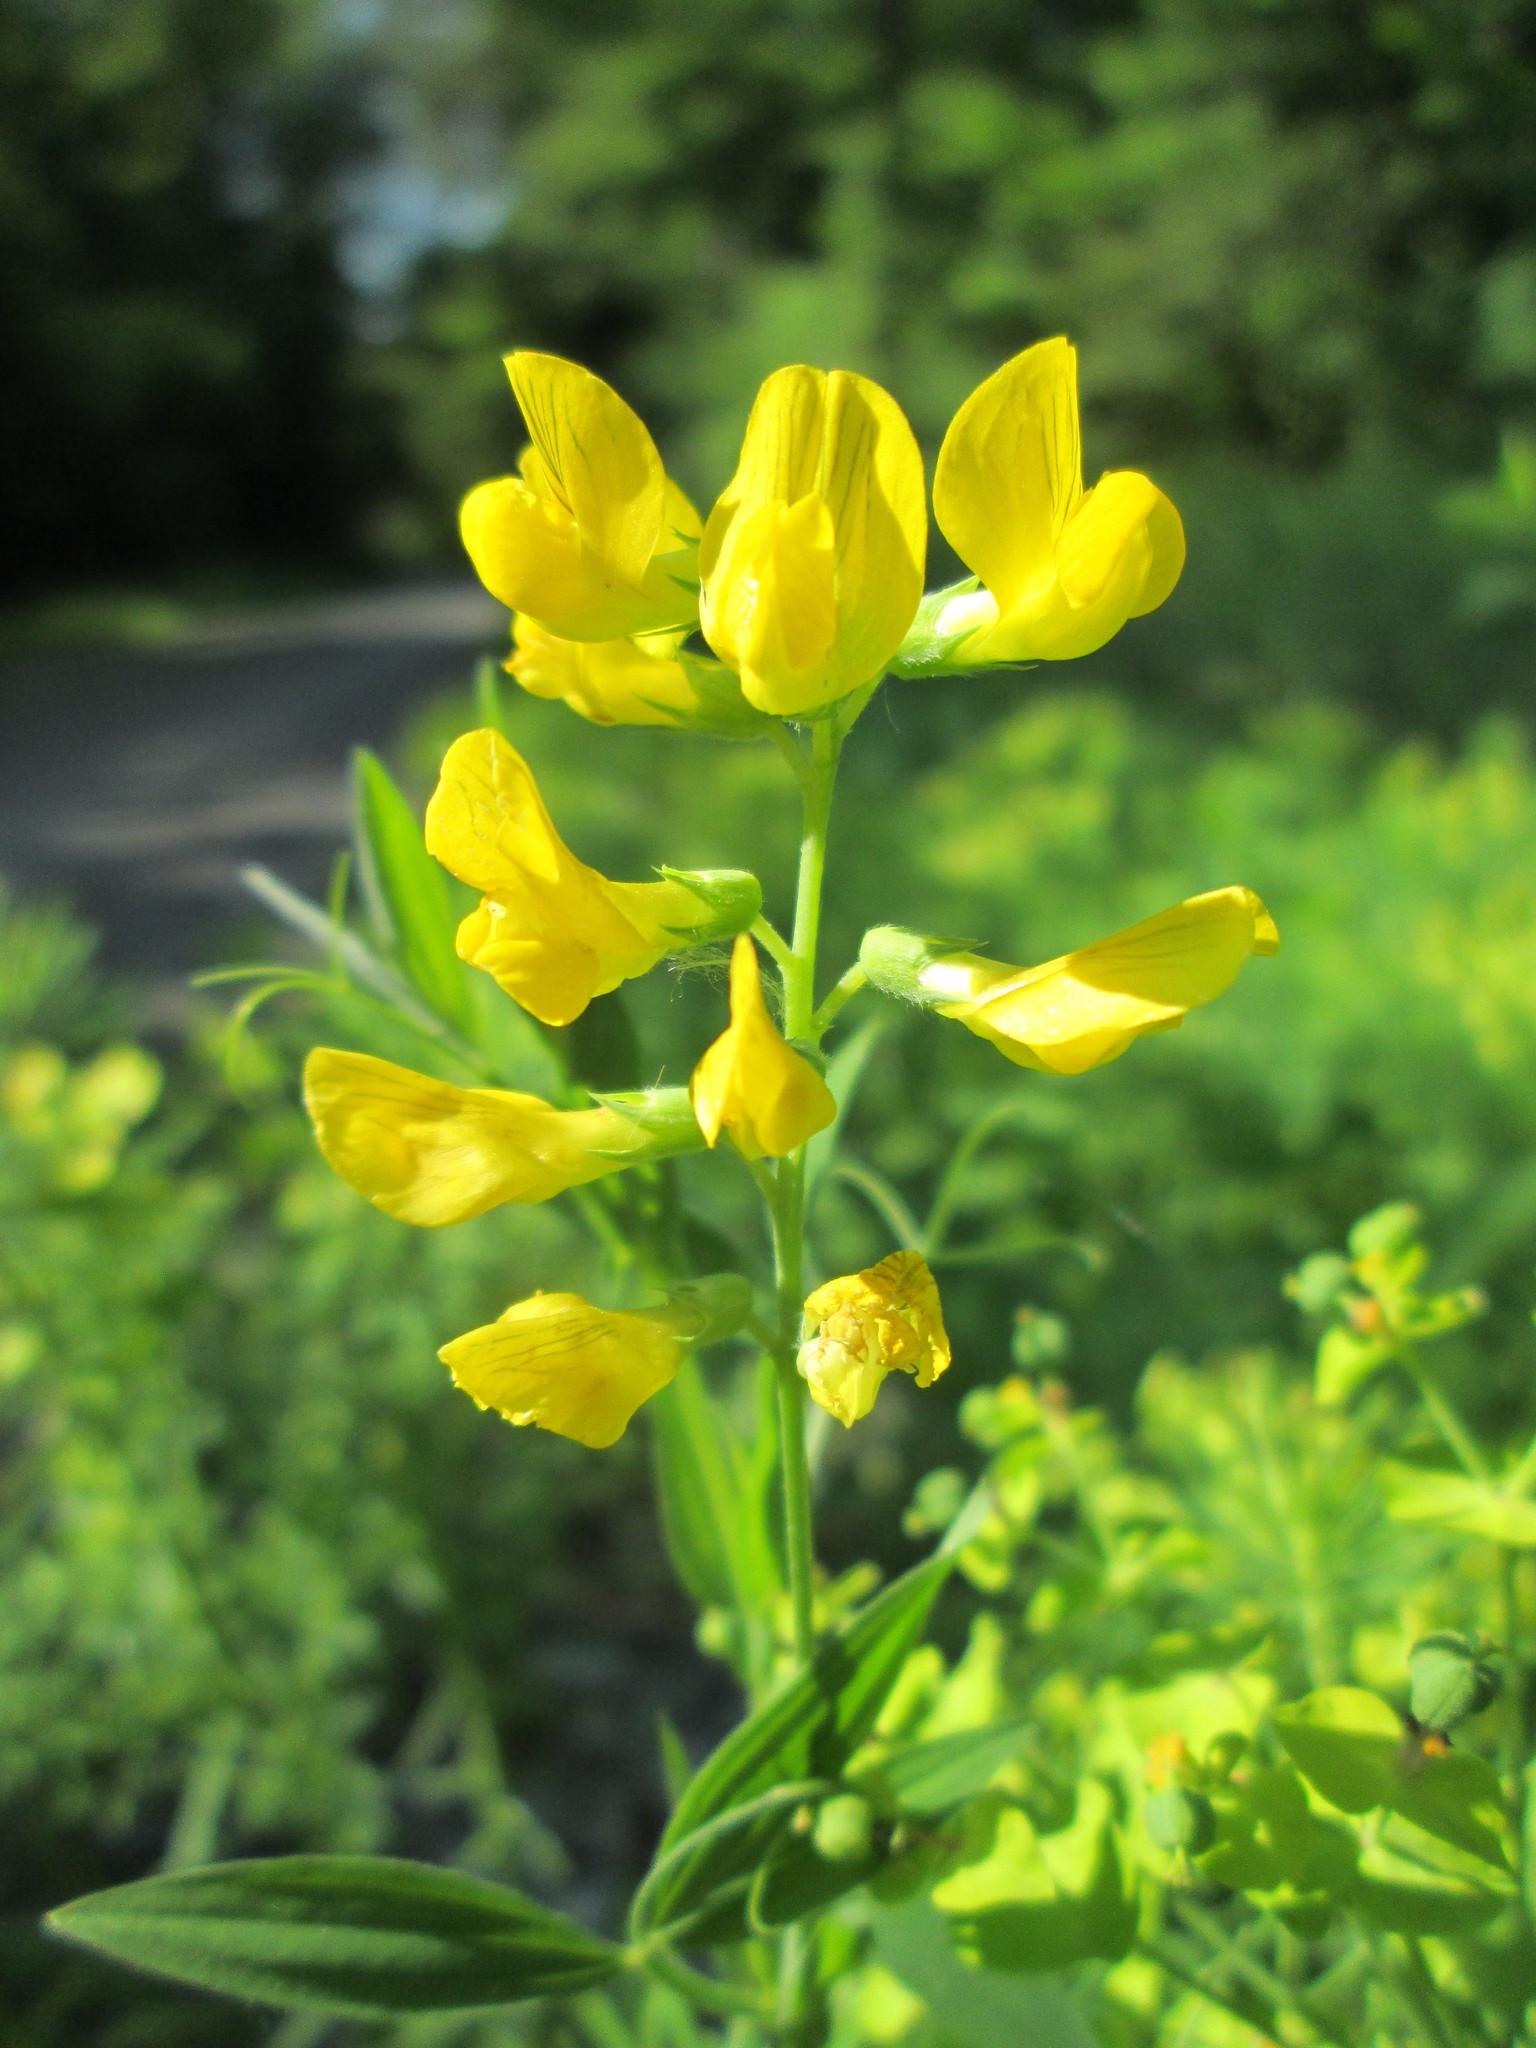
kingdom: Plantae
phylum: Tracheophyta
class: Magnoliopsida
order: Fabales
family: Fabaceae
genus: Lathyrus
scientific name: Lathyrus pratensis
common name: Meadow vetchling
